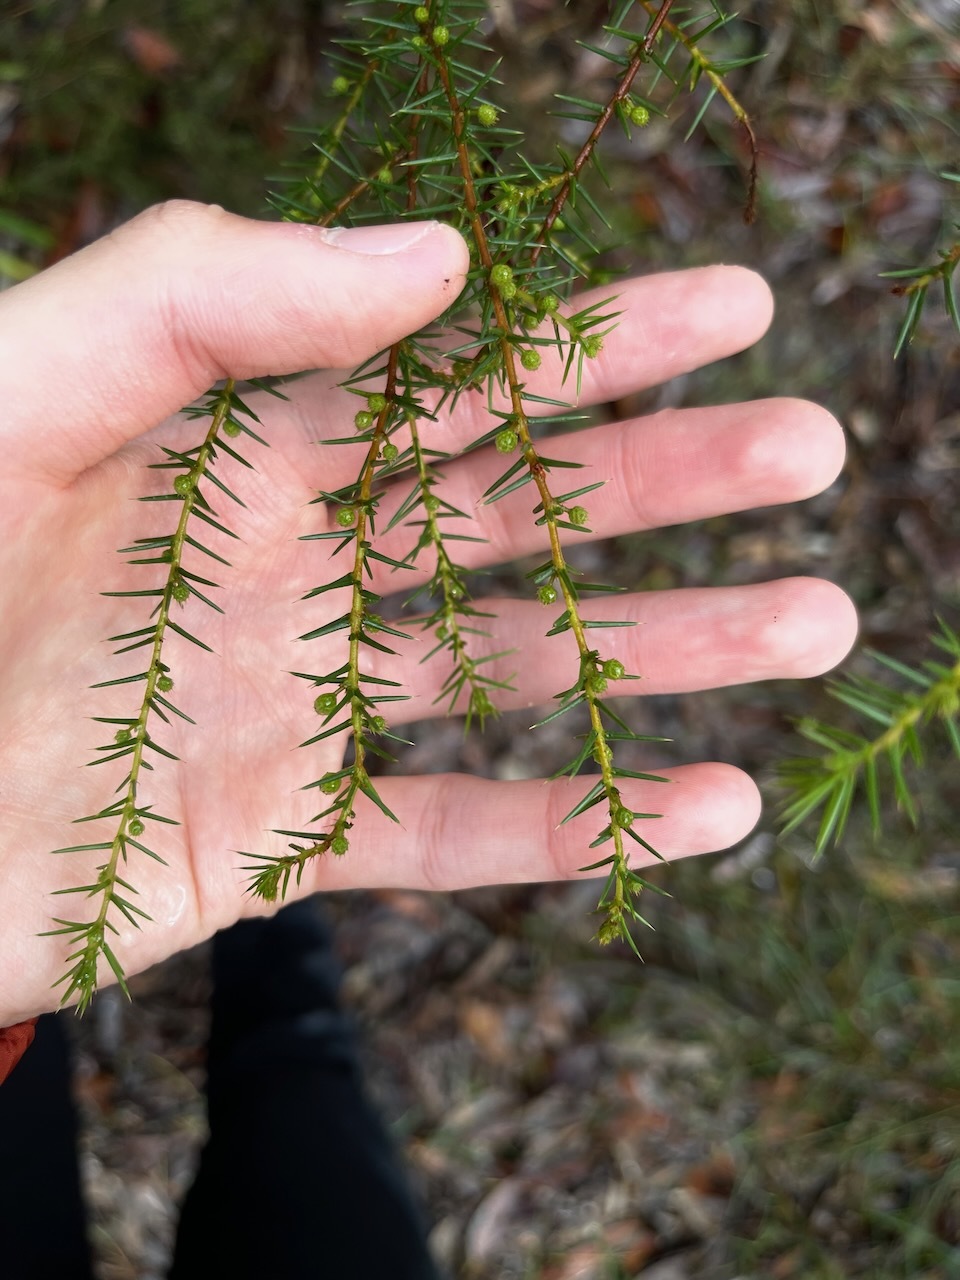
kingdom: Plantae
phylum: Tracheophyta
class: Magnoliopsida
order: Fabales
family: Fabaceae
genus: Acacia
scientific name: Acacia ulicifolia
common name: Juniper wattle
